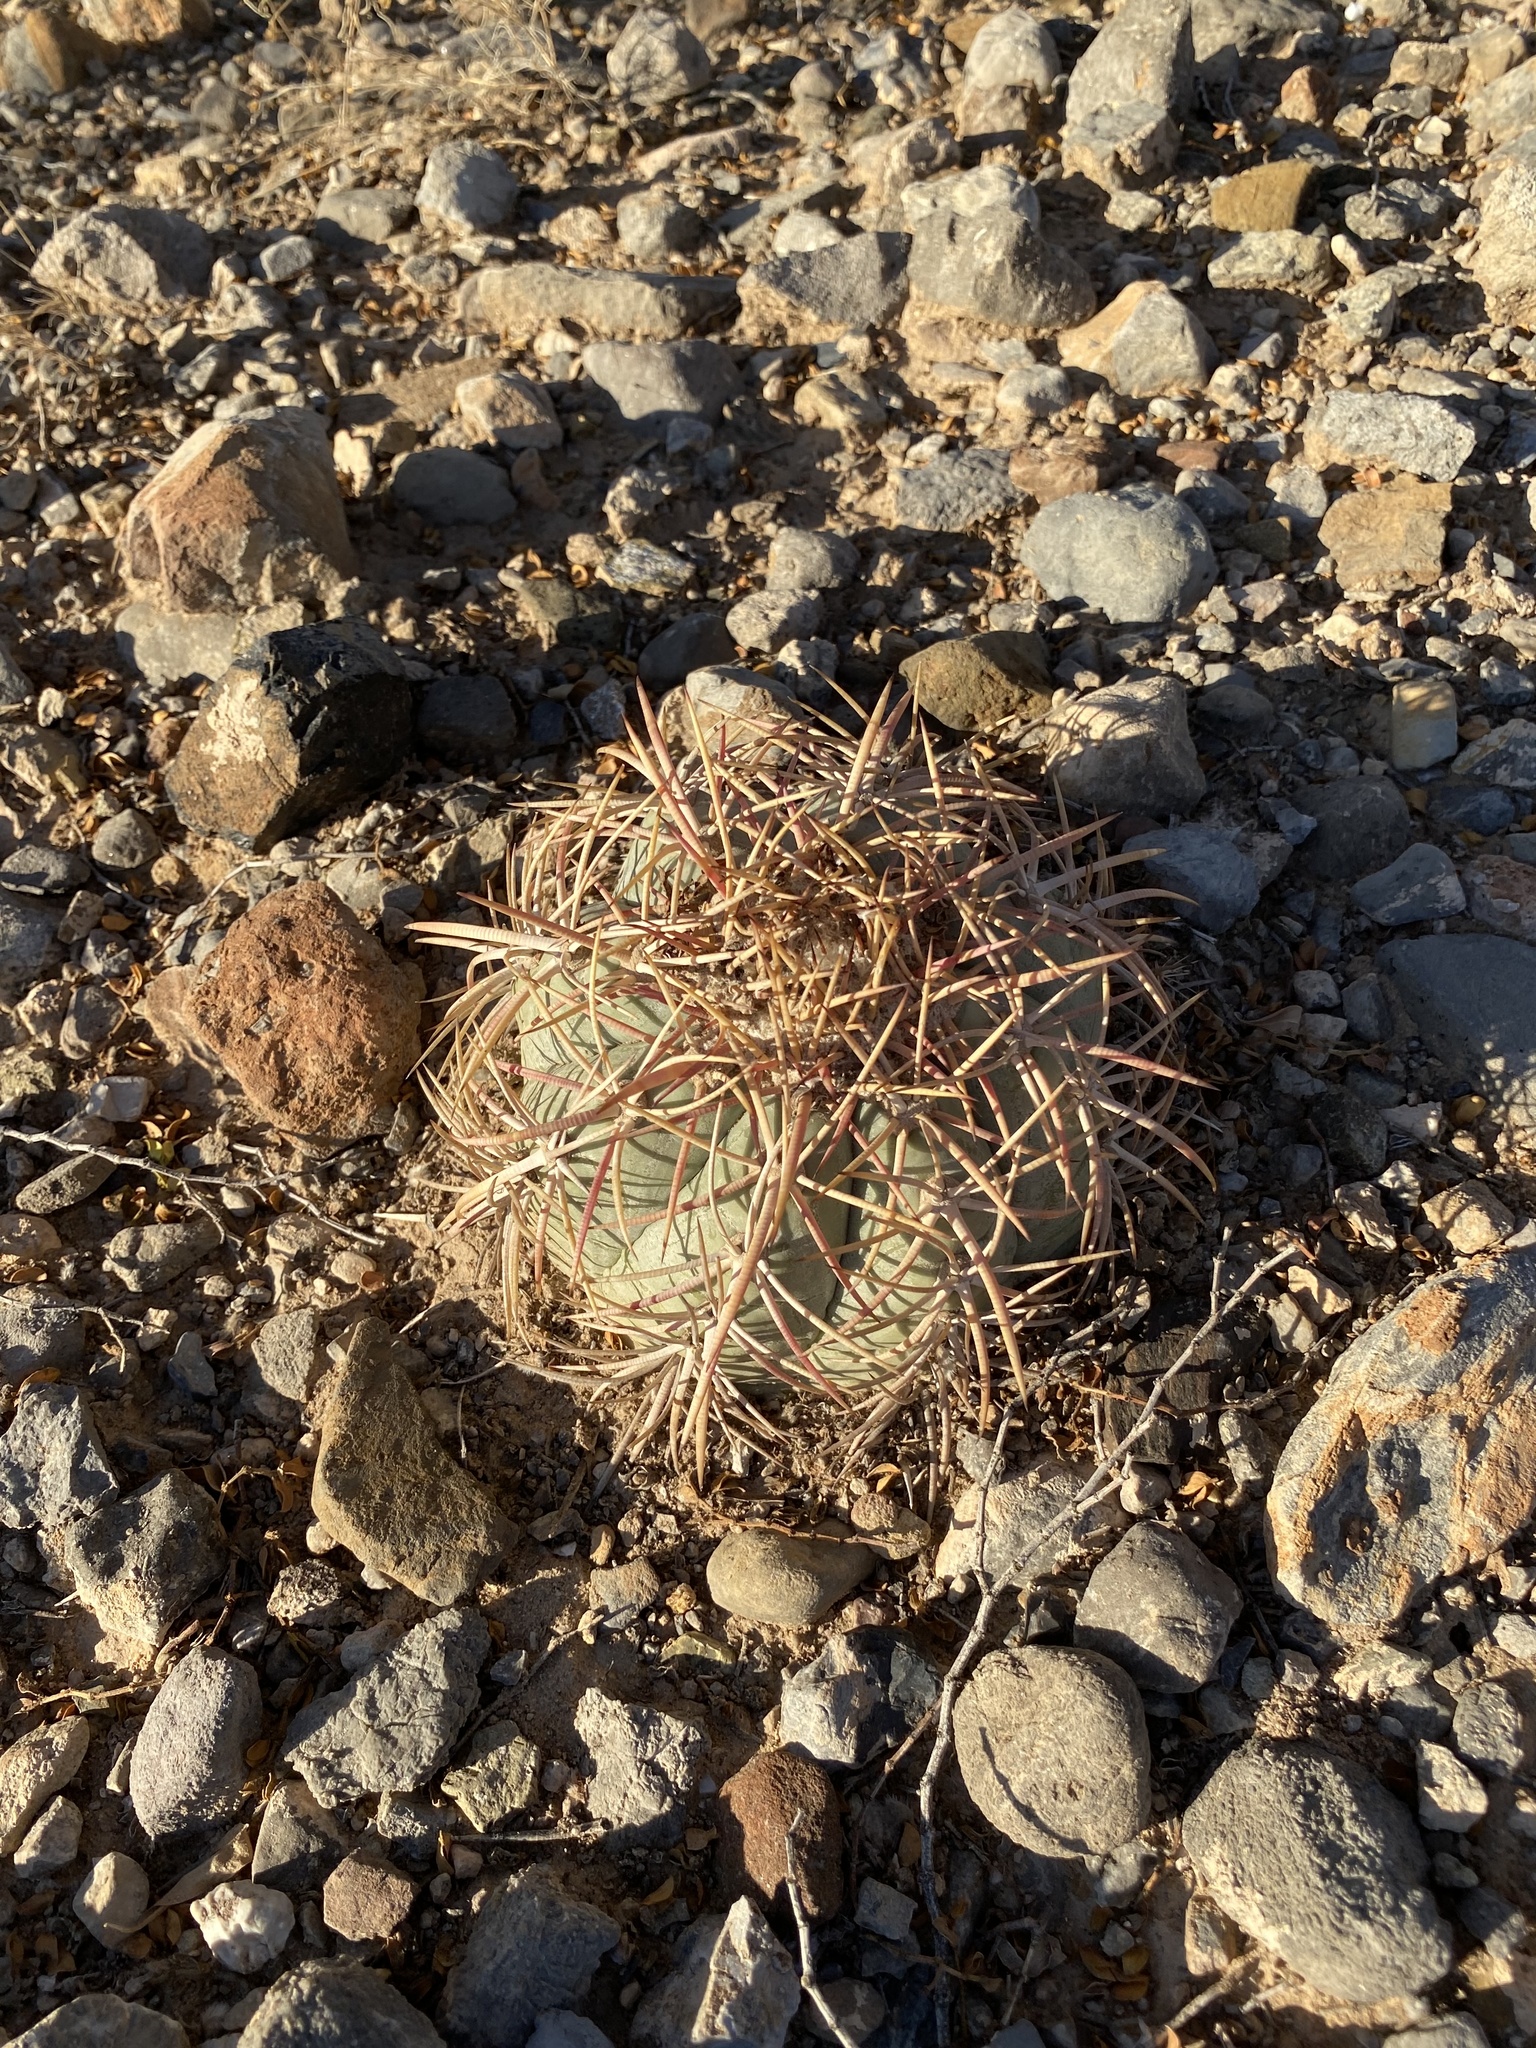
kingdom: Plantae
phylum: Tracheophyta
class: Magnoliopsida
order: Caryophyllales
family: Cactaceae
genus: Echinocactus
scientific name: Echinocactus horizonthalonius
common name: Devilshead
